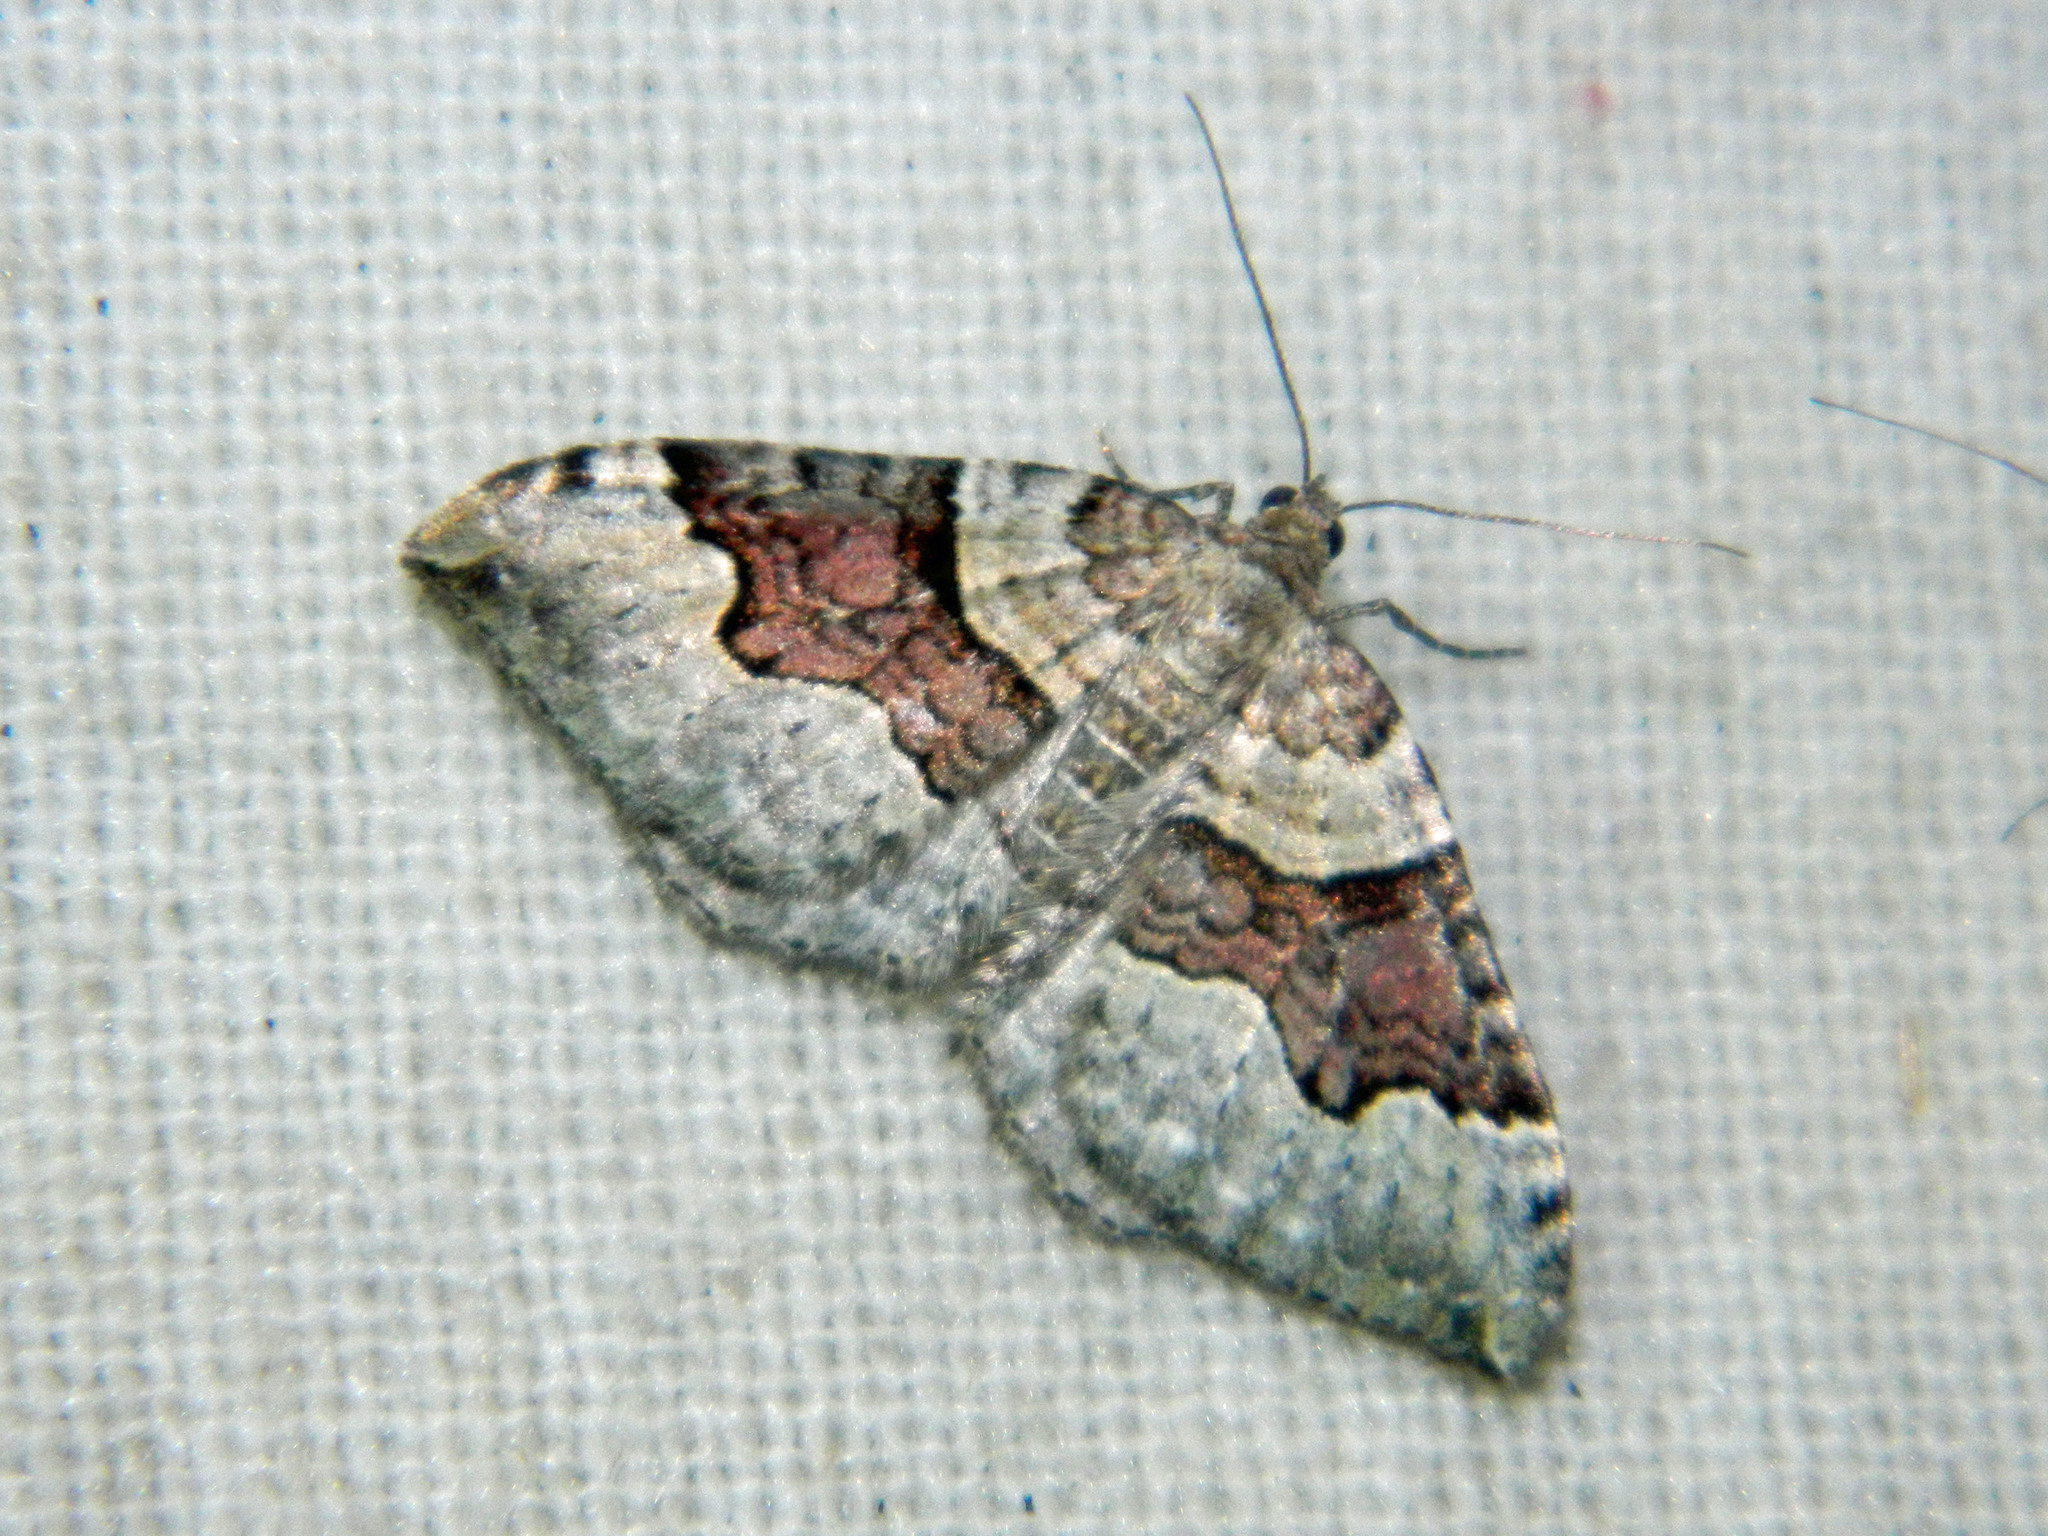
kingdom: Animalia
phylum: Arthropoda
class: Insecta
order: Lepidoptera
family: Geometridae
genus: Xanthorhoe
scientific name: Xanthorhoe decoloraria
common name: Red carpet
